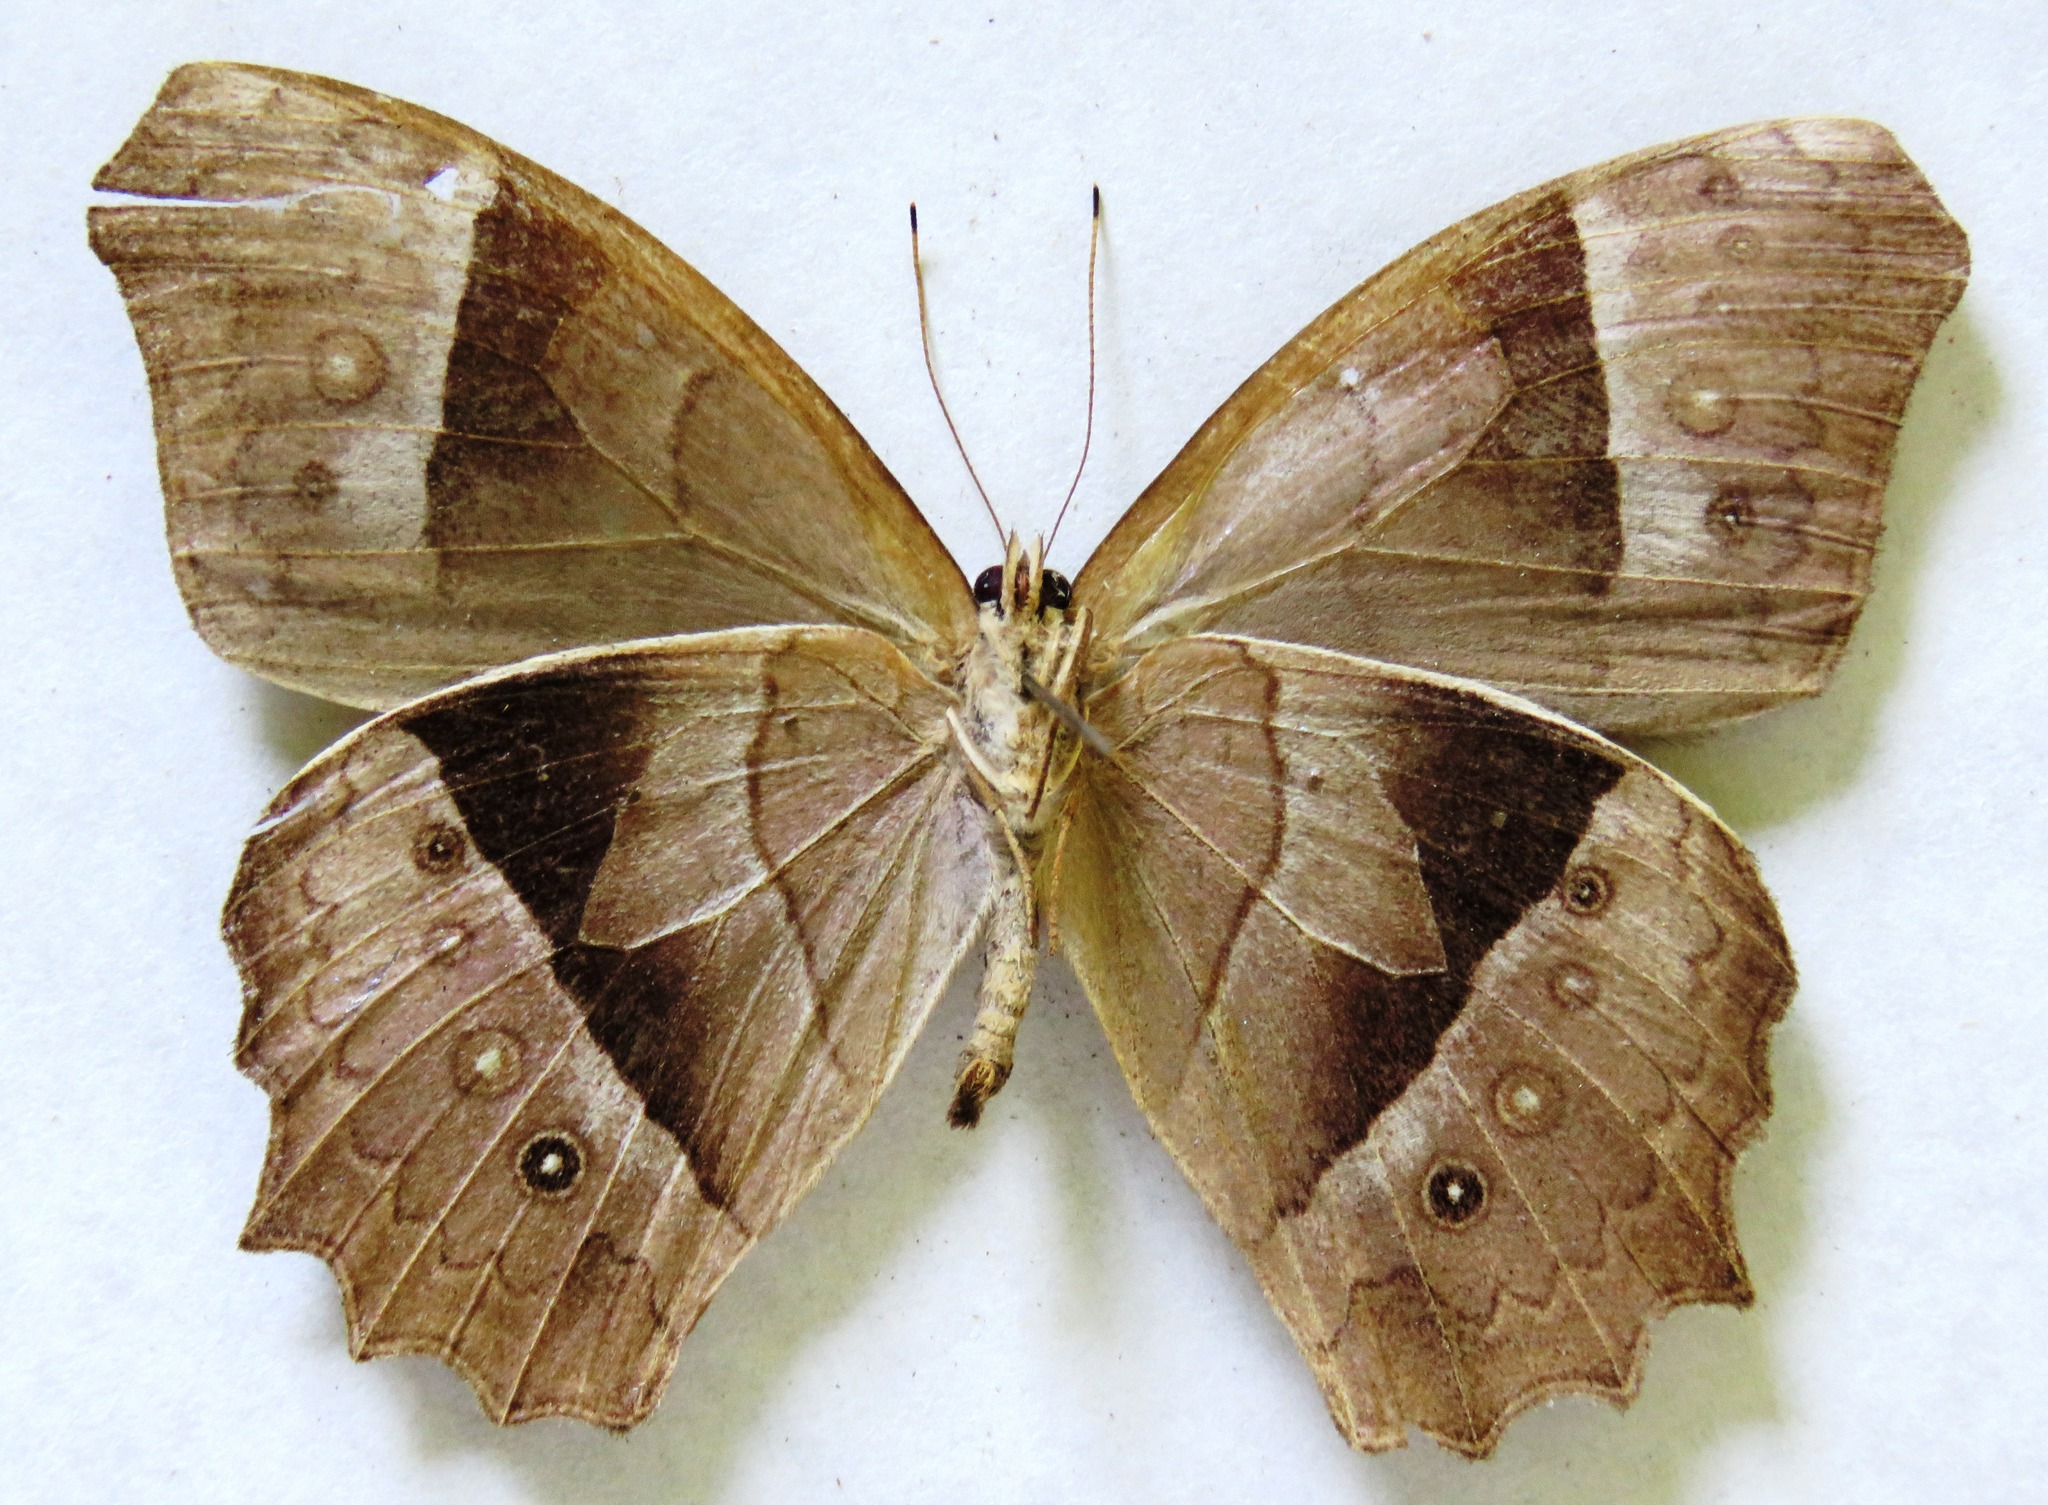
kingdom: Animalia
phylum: Arthropoda
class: Insecta
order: Lepidoptera
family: Nymphalidae
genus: Taygetis
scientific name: Taygetis andromeda
